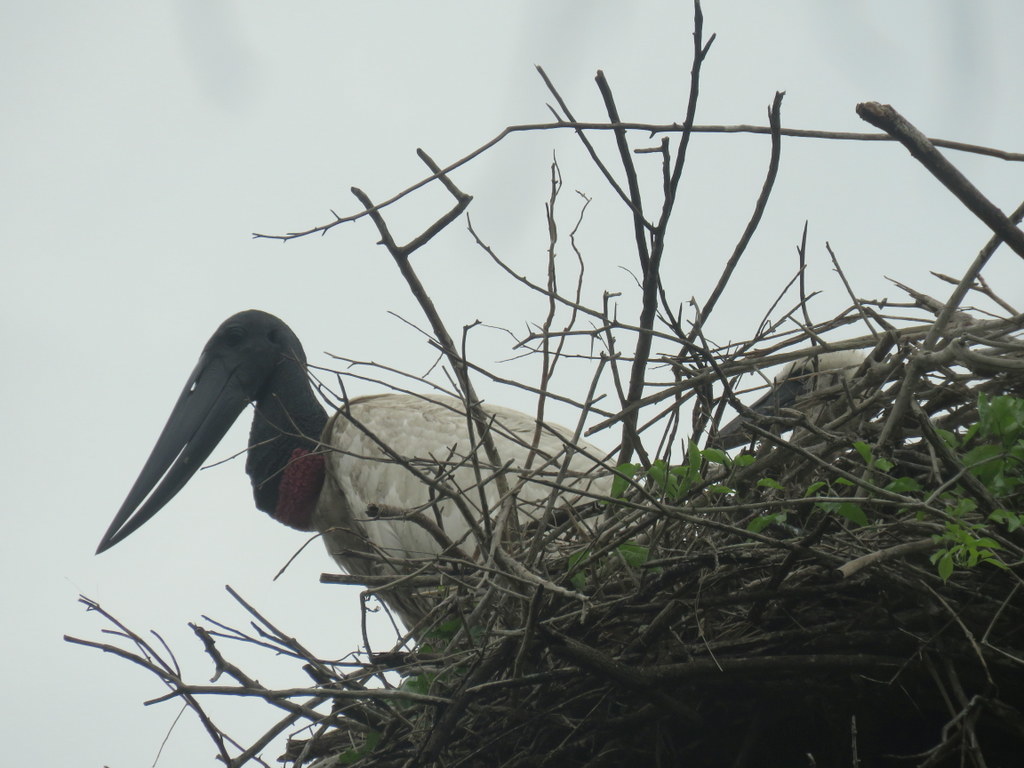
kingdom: Animalia
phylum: Chordata
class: Aves
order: Ciconiiformes
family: Ciconiidae
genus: Jabiru
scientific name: Jabiru mycteria
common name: Jabiru
